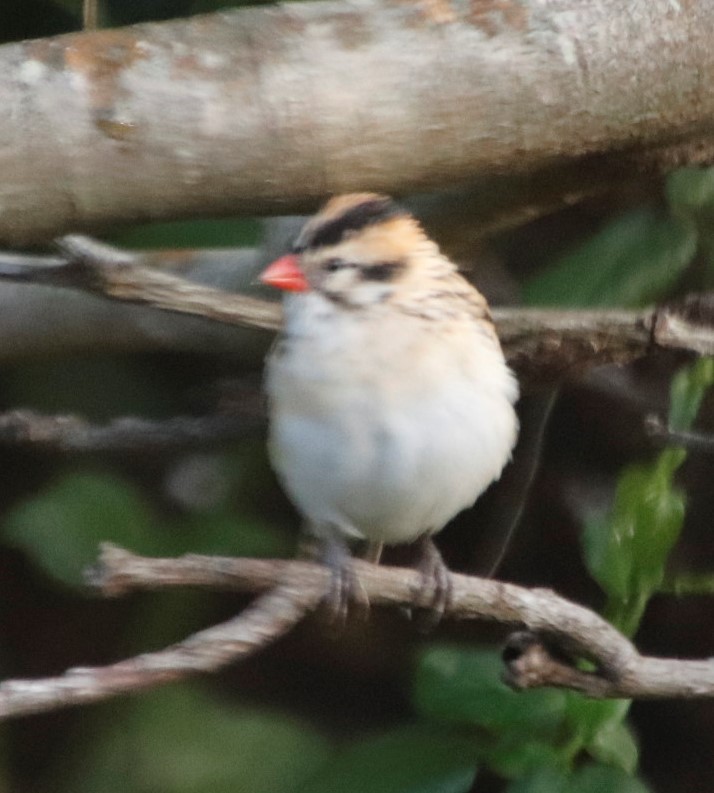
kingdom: Animalia
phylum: Chordata
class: Aves
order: Passeriformes
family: Viduidae
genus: Vidua
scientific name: Vidua macroura
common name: Pin-tailed whydah
